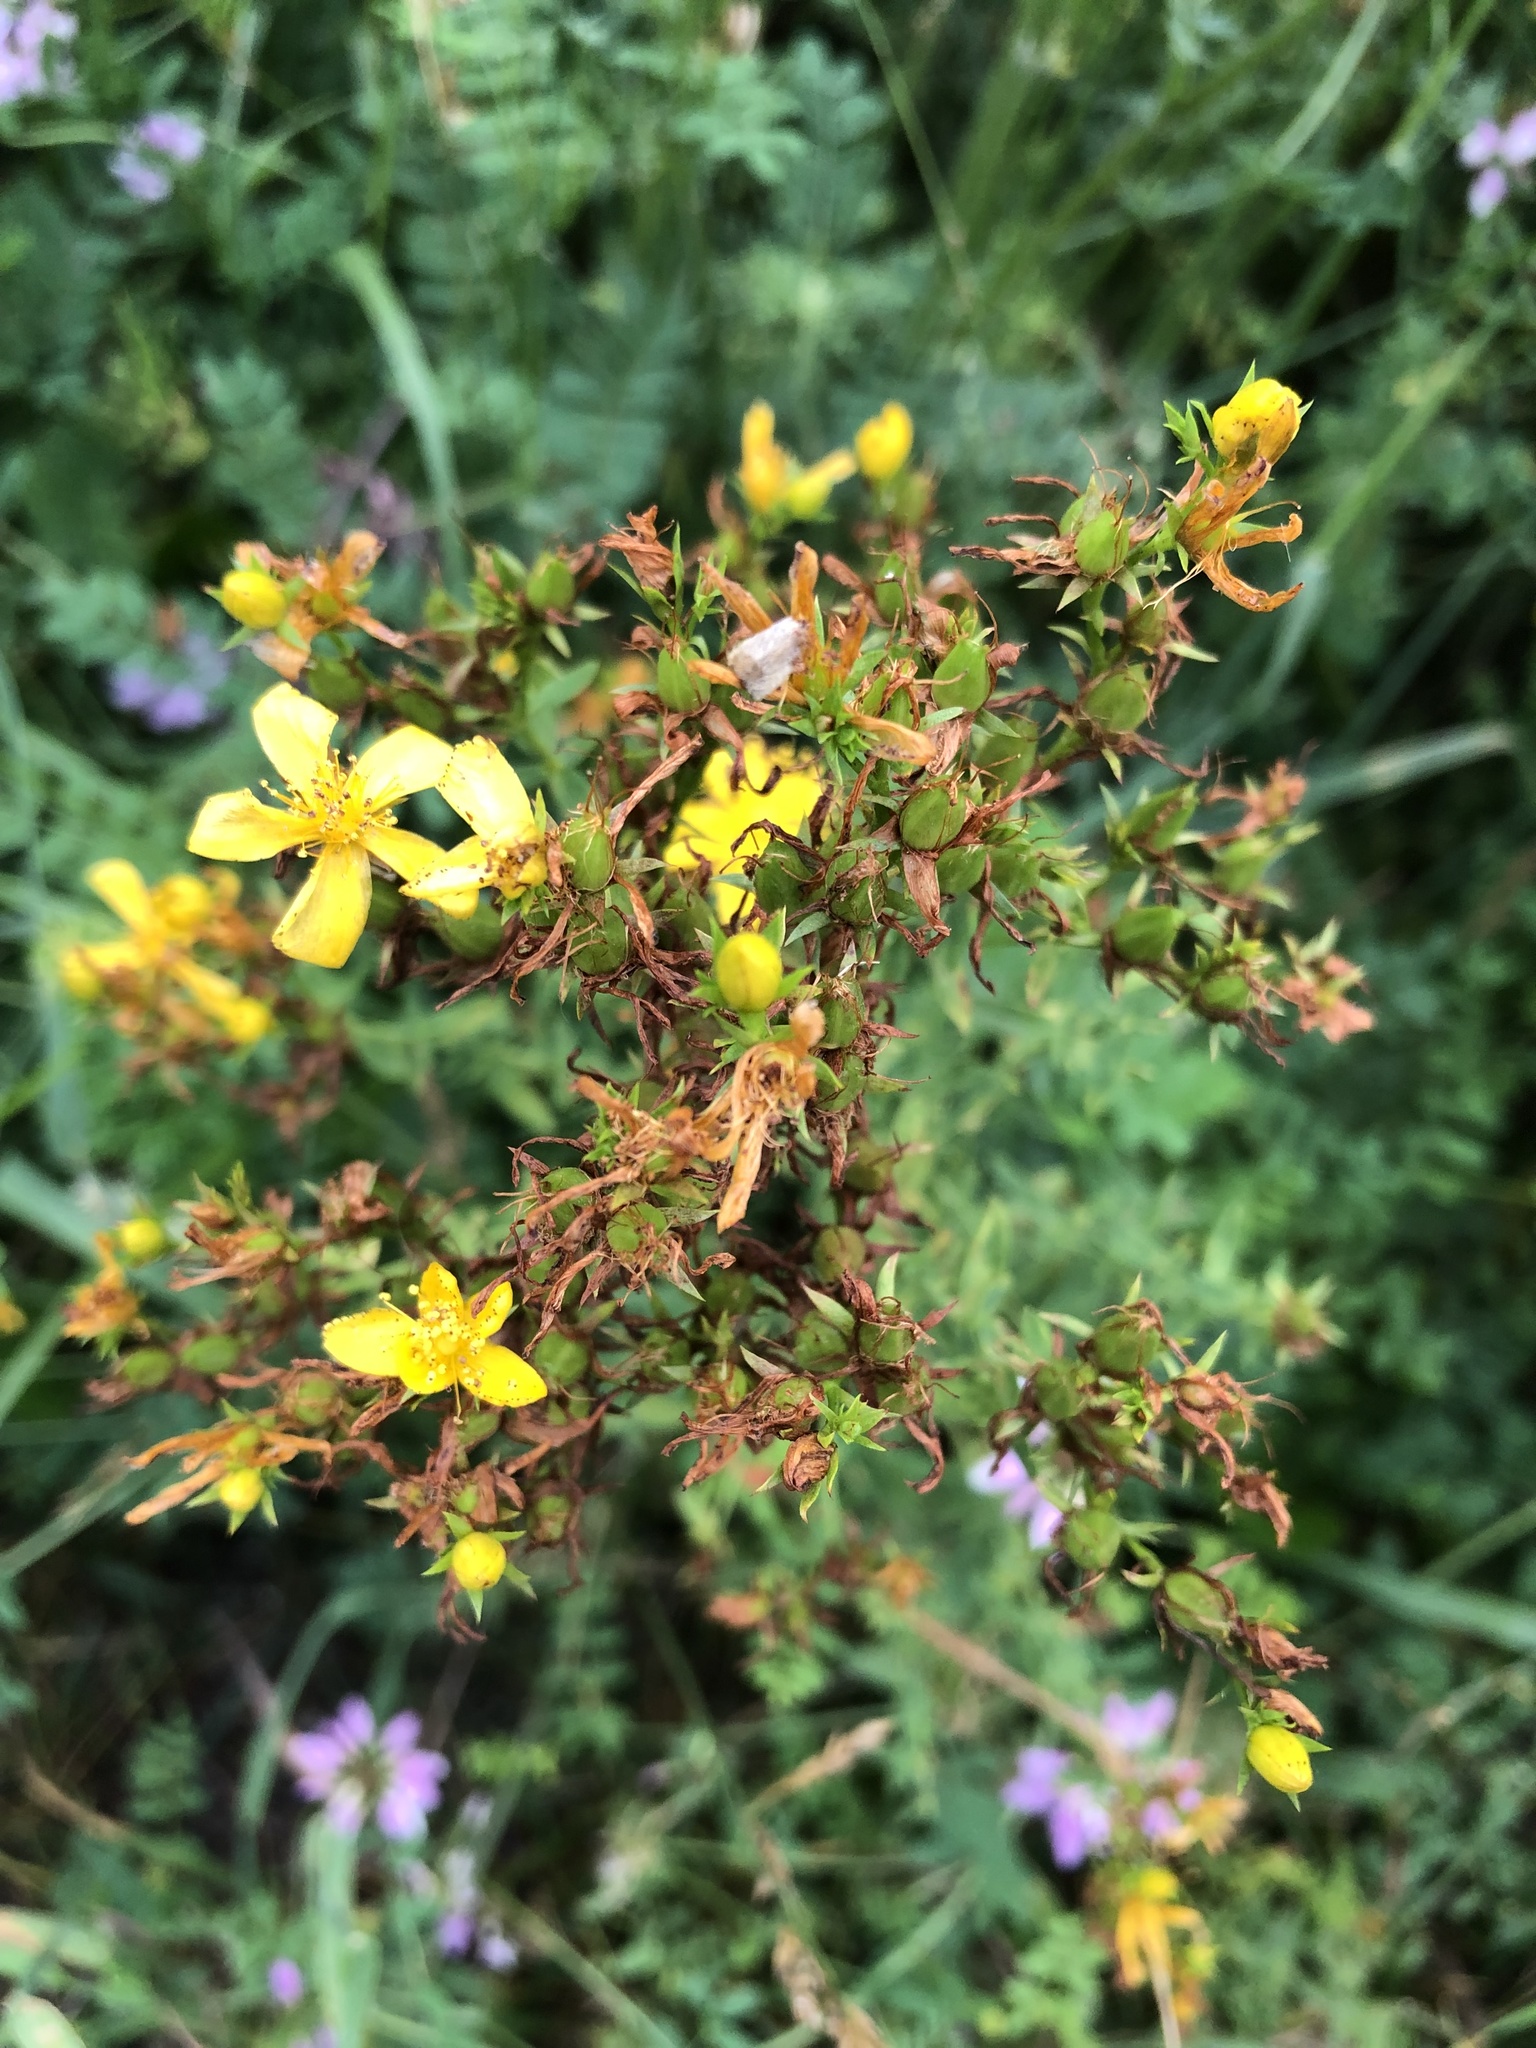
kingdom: Plantae
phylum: Tracheophyta
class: Magnoliopsida
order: Malpighiales
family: Hypericaceae
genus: Hypericum
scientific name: Hypericum perforatum
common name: Common st. johnswort
